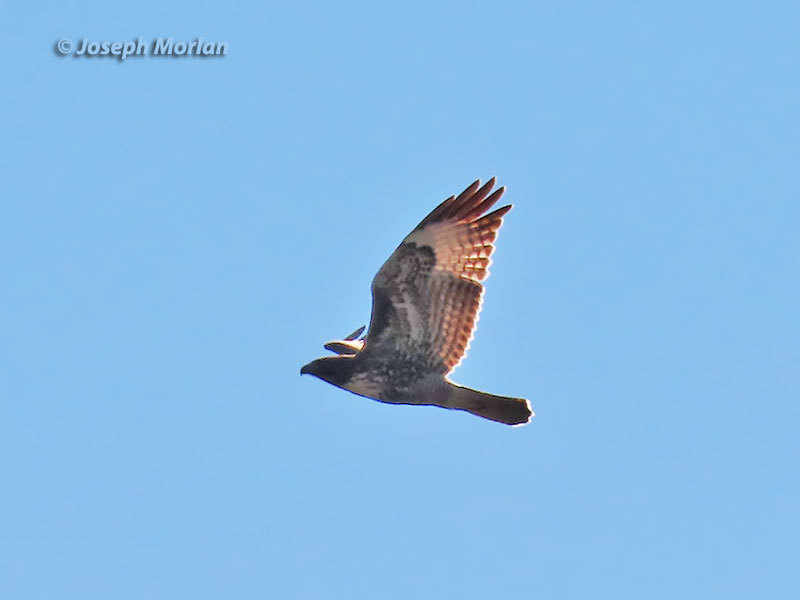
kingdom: Animalia
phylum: Chordata
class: Aves
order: Accipitriformes
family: Accipitridae
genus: Buteo
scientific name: Buteo jamaicensis
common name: Red-tailed hawk
